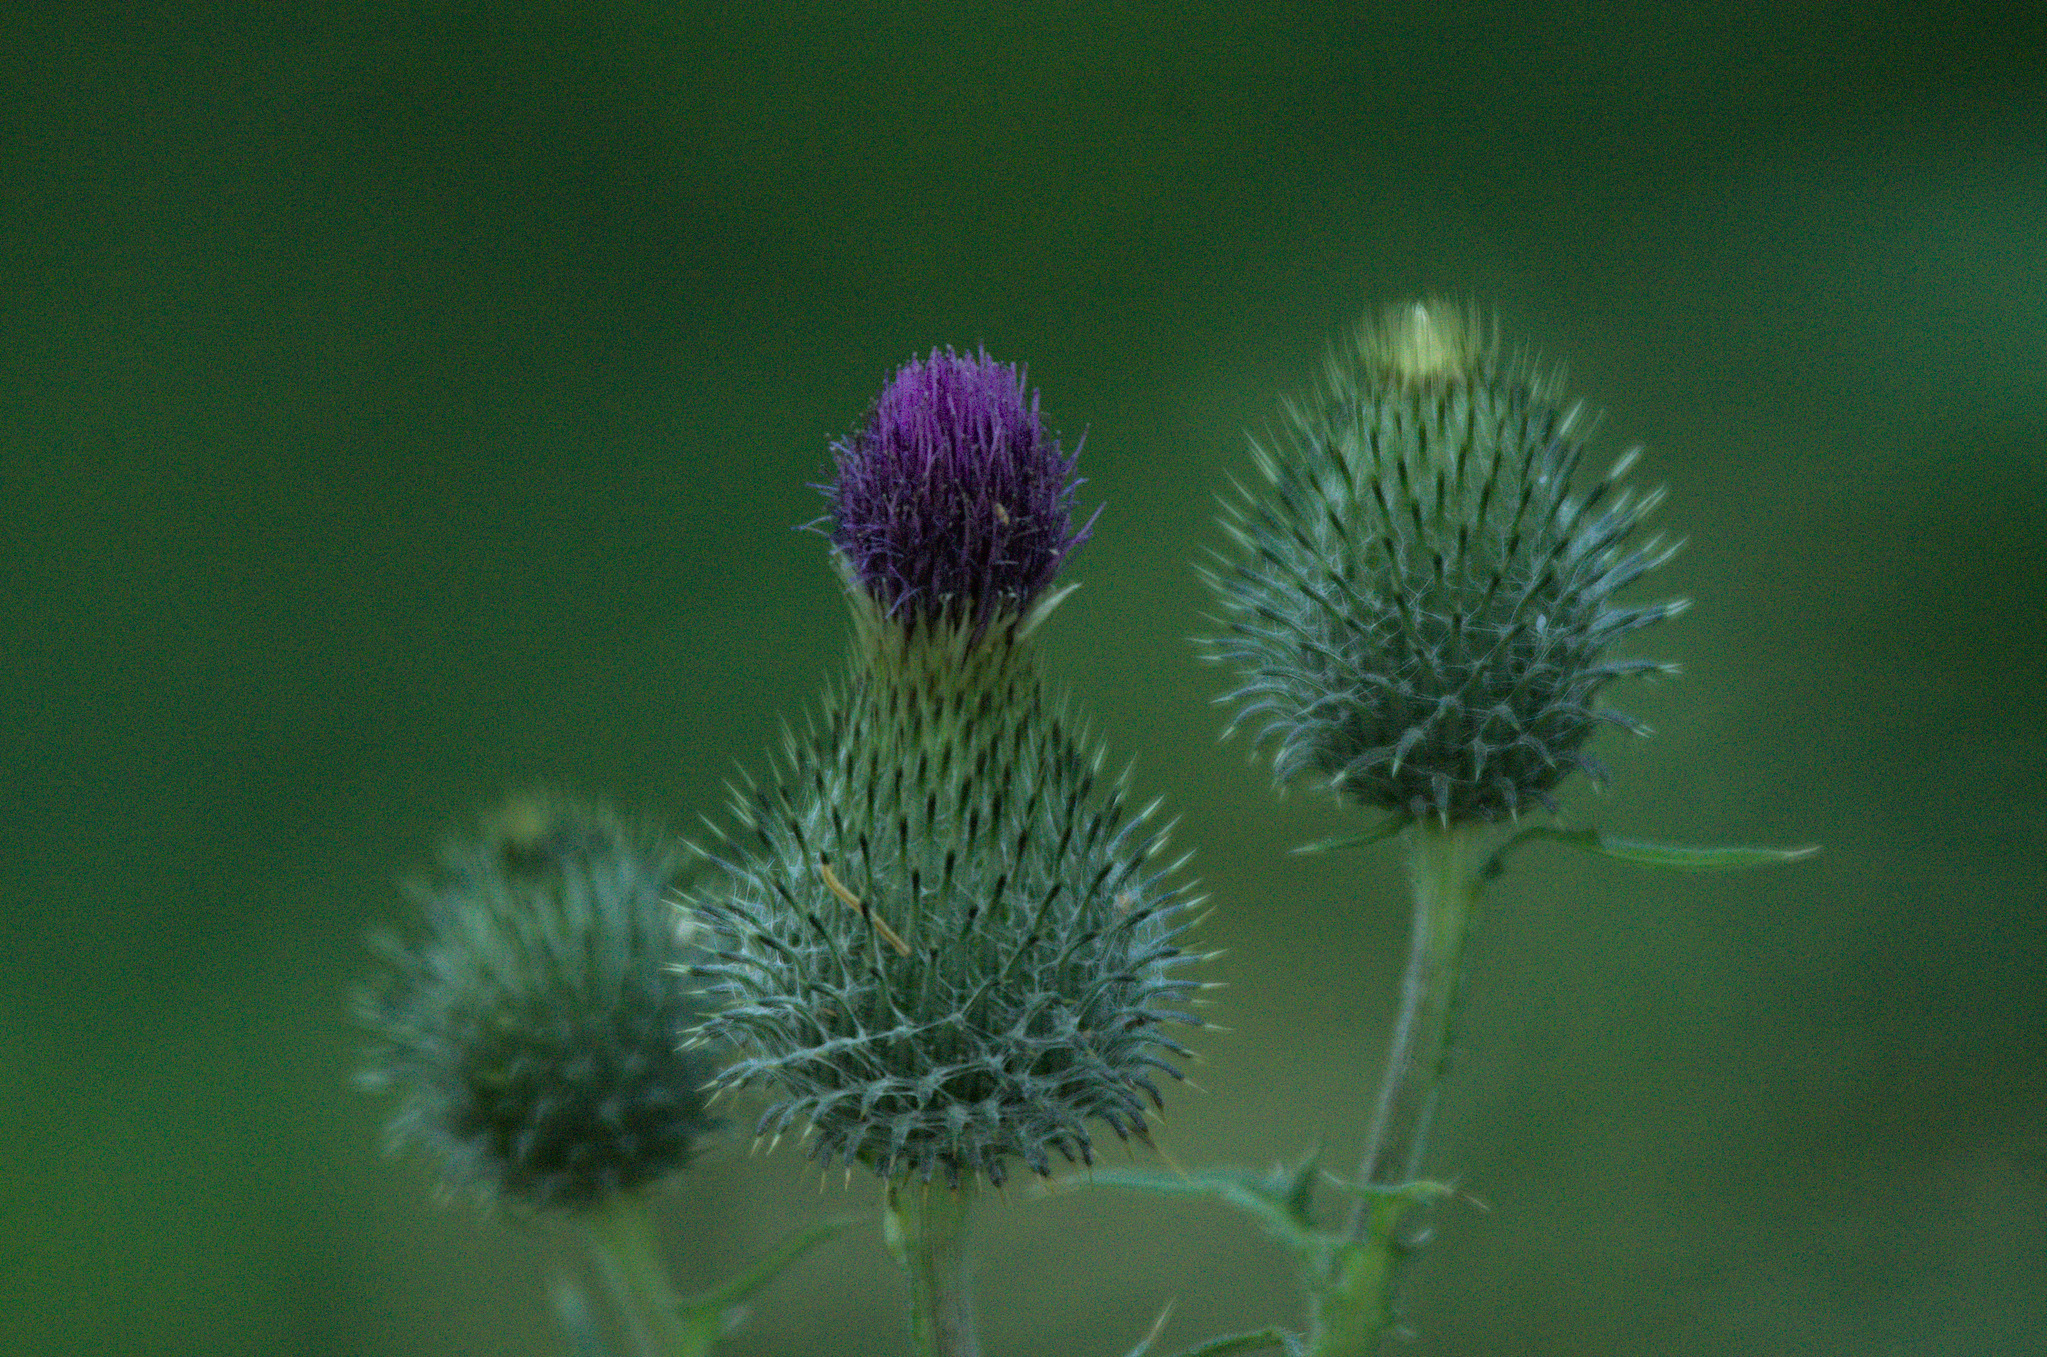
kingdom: Plantae
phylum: Tracheophyta
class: Magnoliopsida
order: Asterales
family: Asteraceae
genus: Cirsium
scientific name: Cirsium vulgare
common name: Bull thistle
